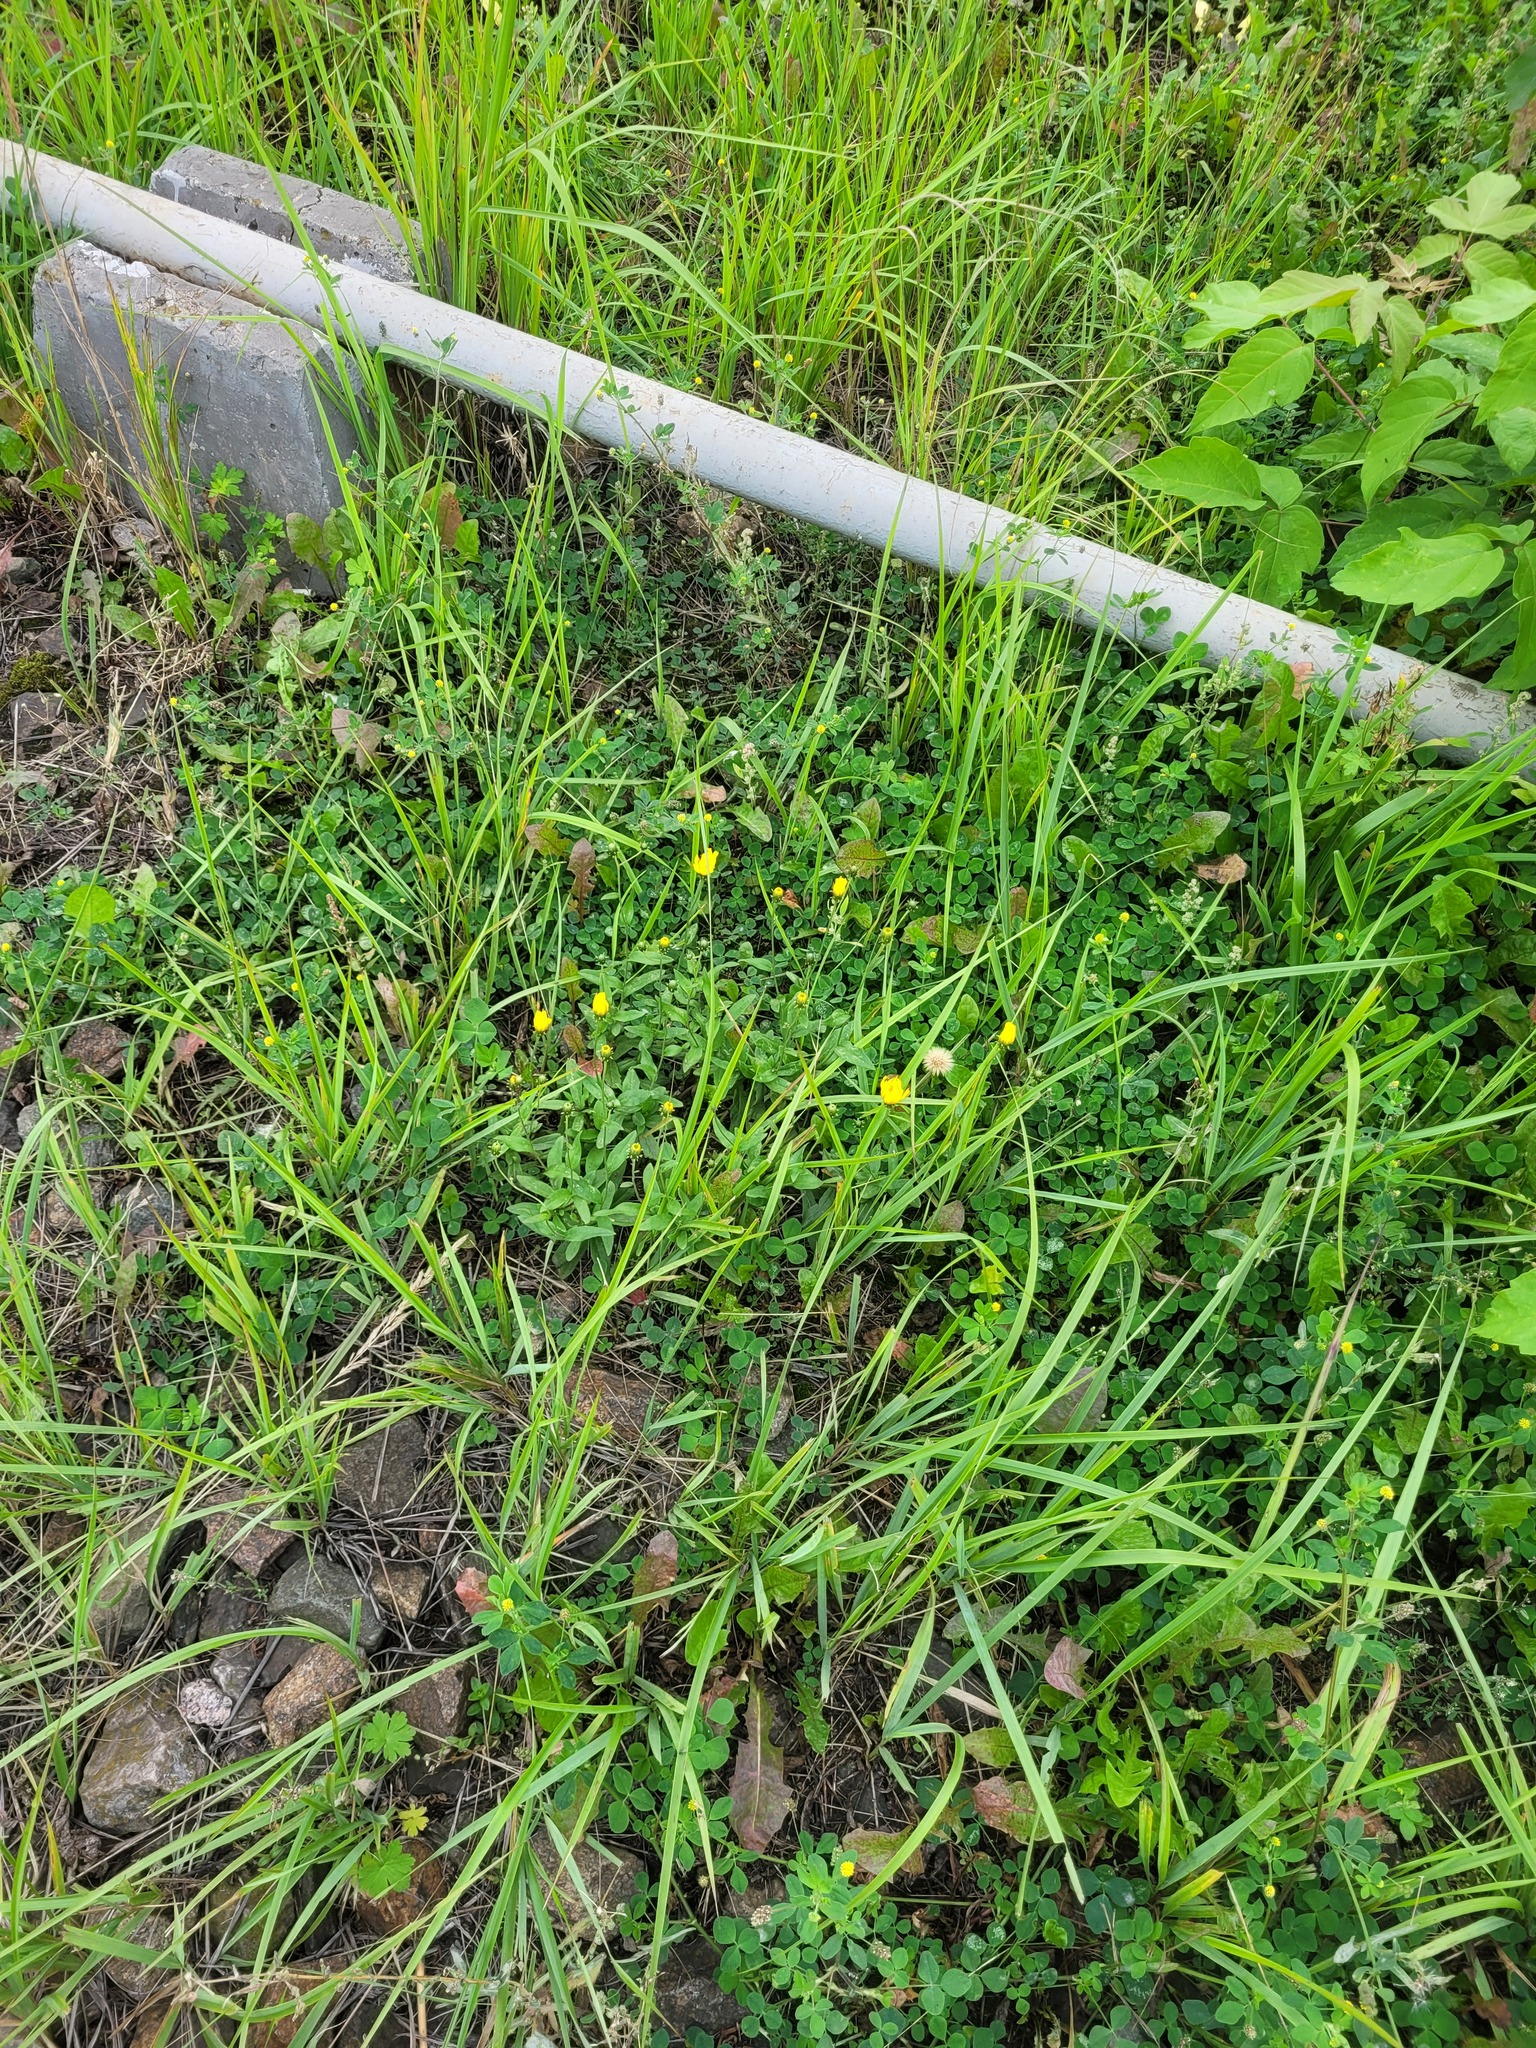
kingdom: Plantae
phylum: Tracheophyta
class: Magnoliopsida
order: Asterales
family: Asteraceae
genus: Hieracium
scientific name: Hieracium umbellatum
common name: Northern hawkweed
